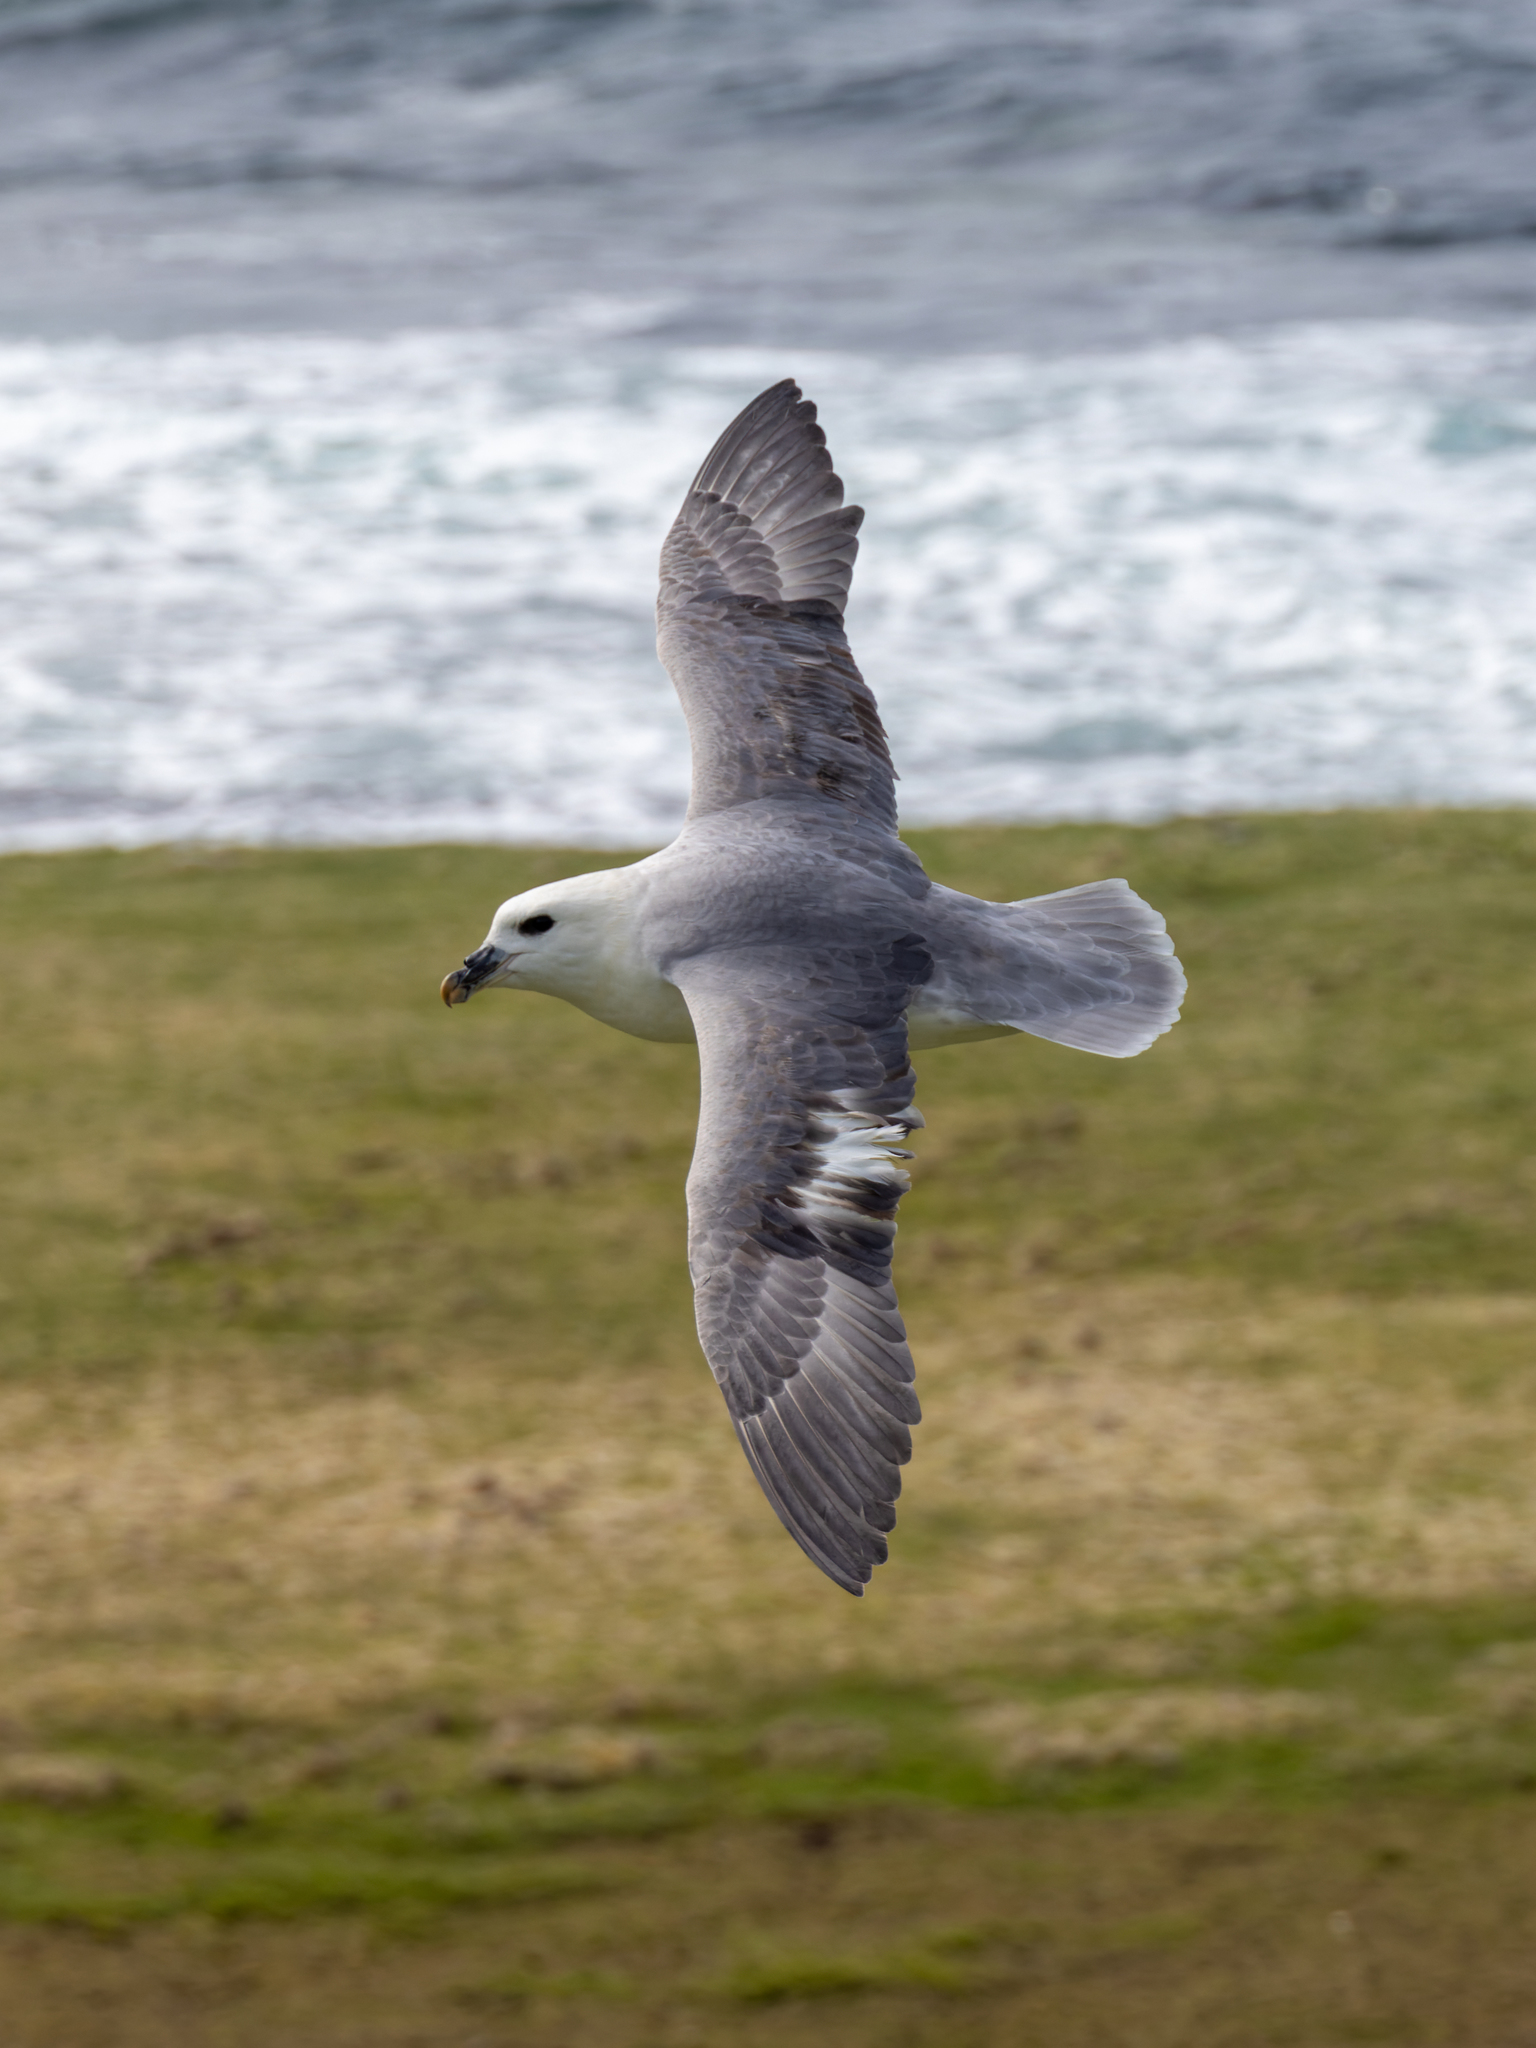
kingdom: Animalia
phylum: Chordata
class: Aves
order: Procellariiformes
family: Procellariidae
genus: Fulmarus
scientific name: Fulmarus glacialis
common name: Northern fulmar
